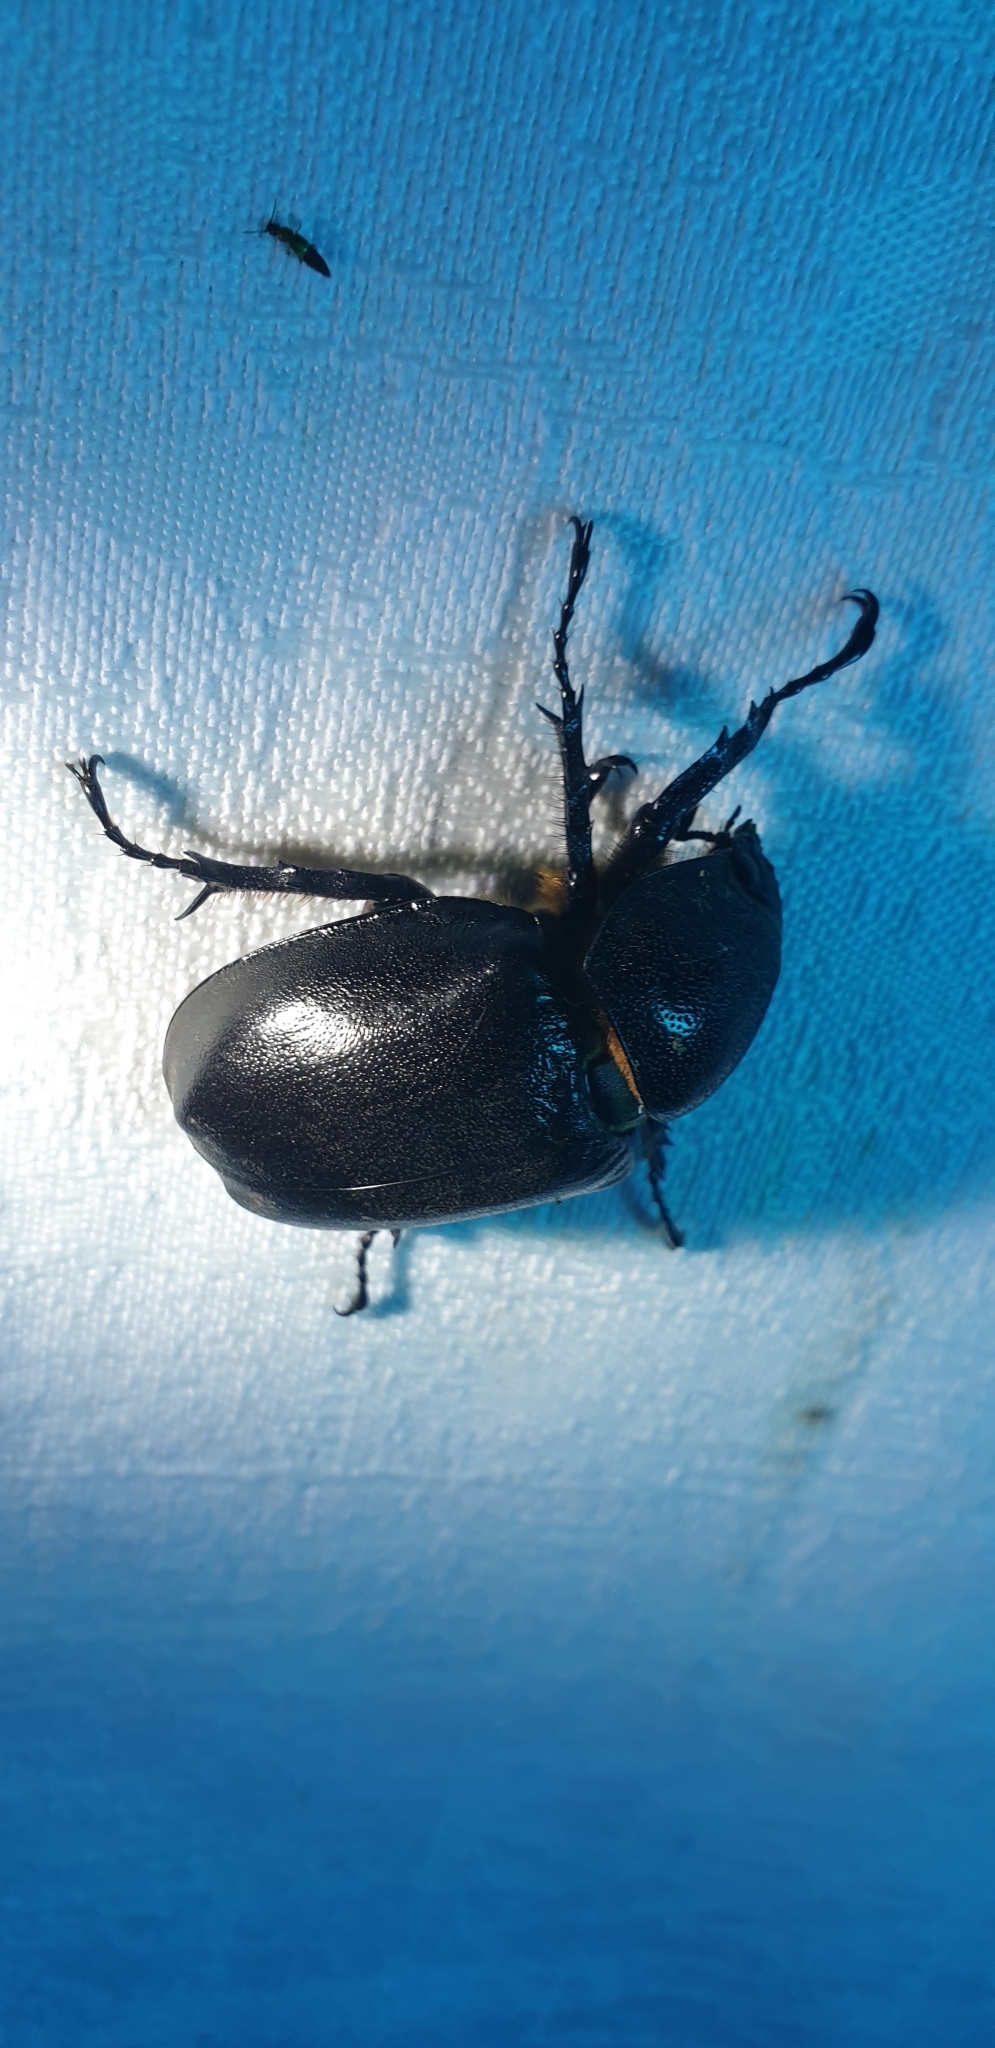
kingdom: Animalia
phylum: Arthropoda
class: Insecta
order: Coleoptera
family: Scarabaeidae
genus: Xylotrupes
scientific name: Xylotrupes australicus
